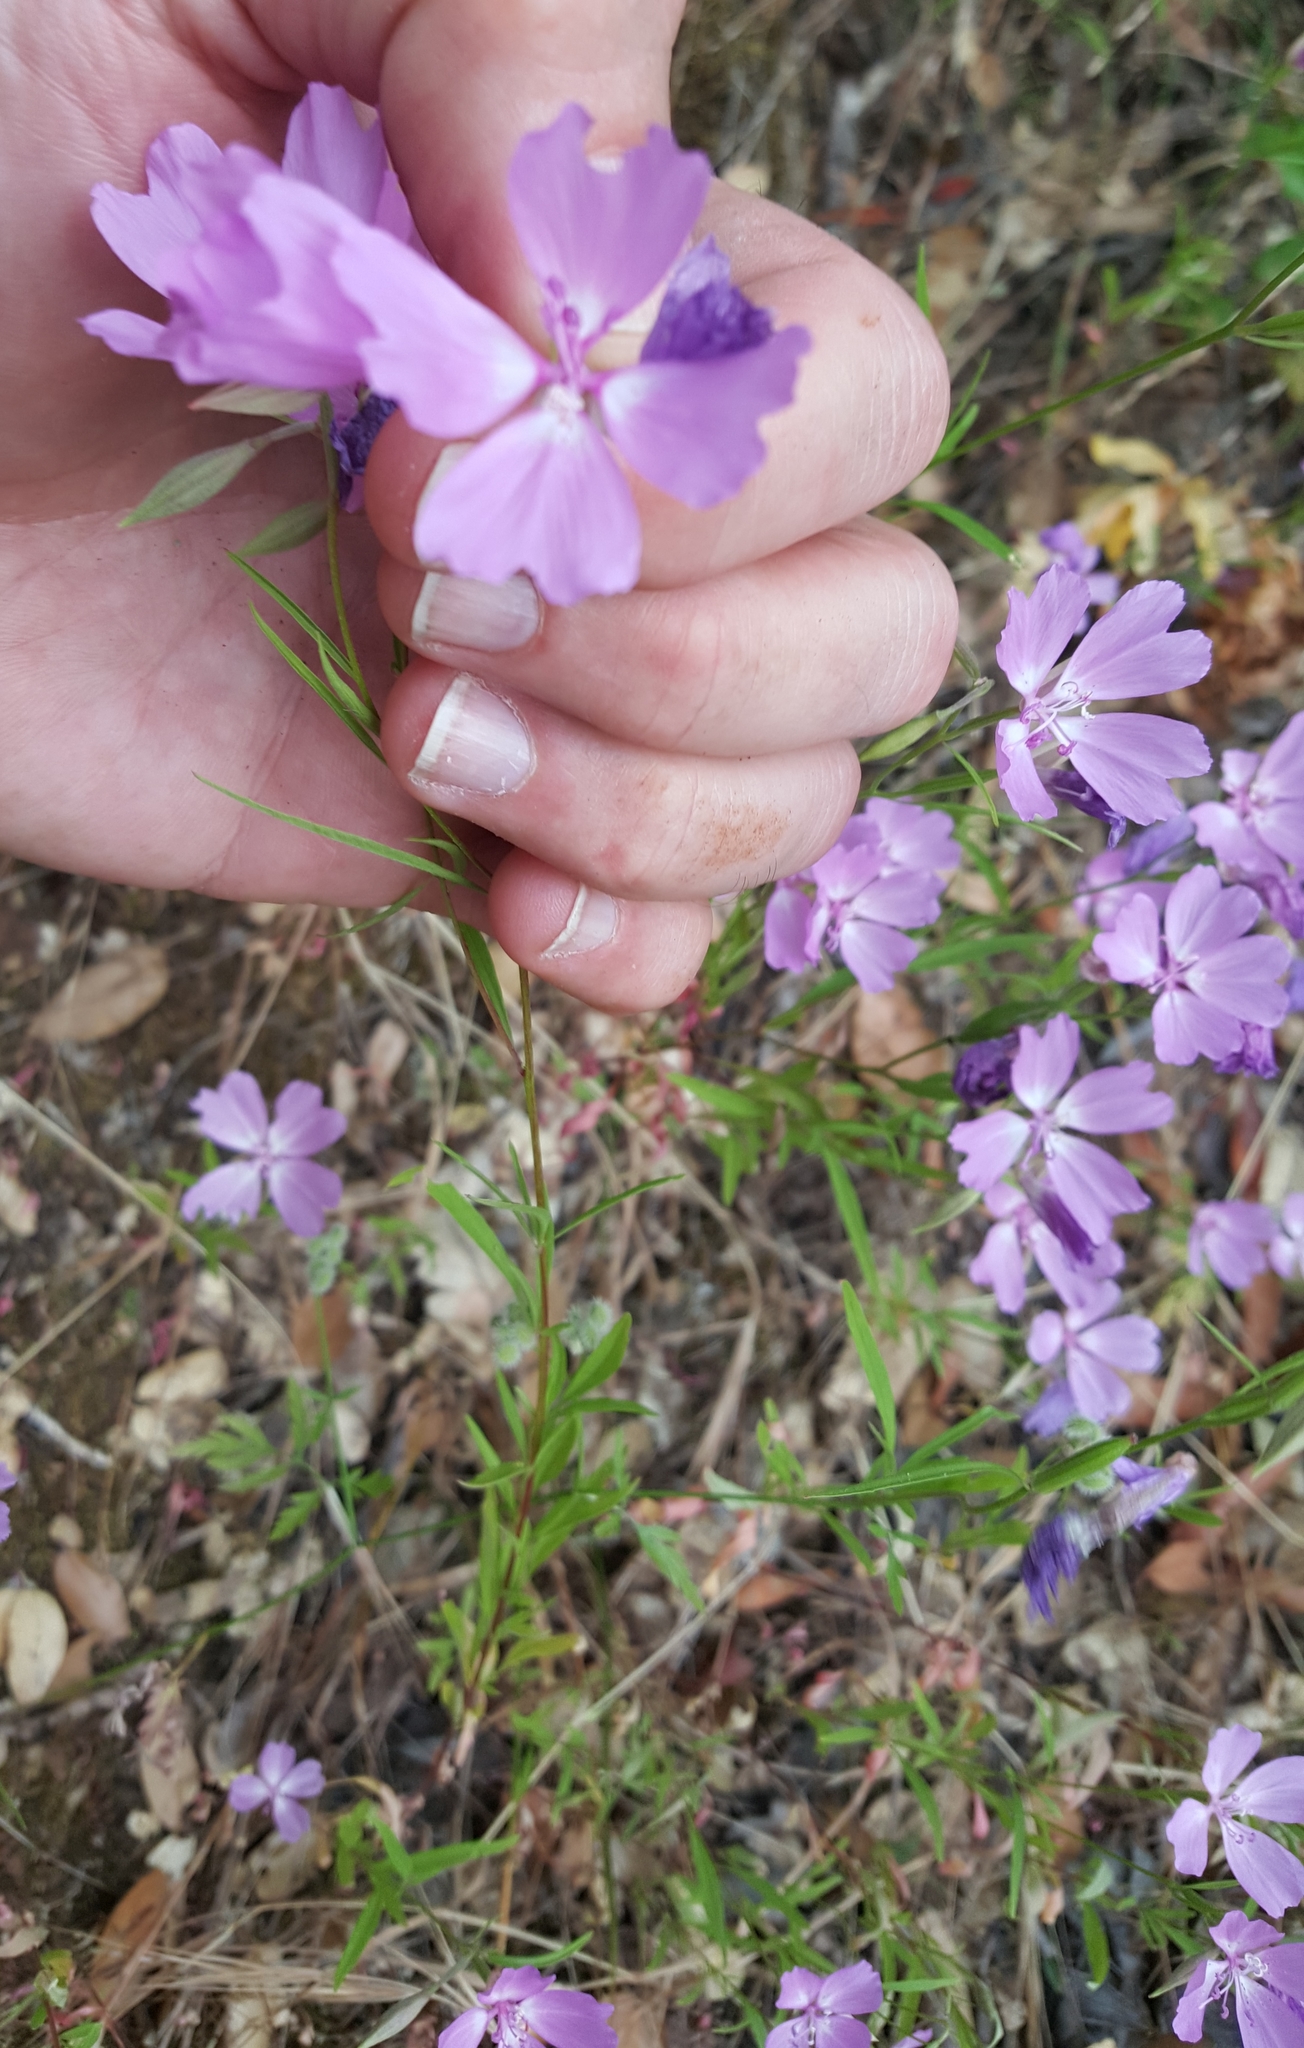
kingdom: Plantae
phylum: Tracheophyta
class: Magnoliopsida
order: Myrtales
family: Onagraceae
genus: Clarkia
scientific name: Clarkia biloba
